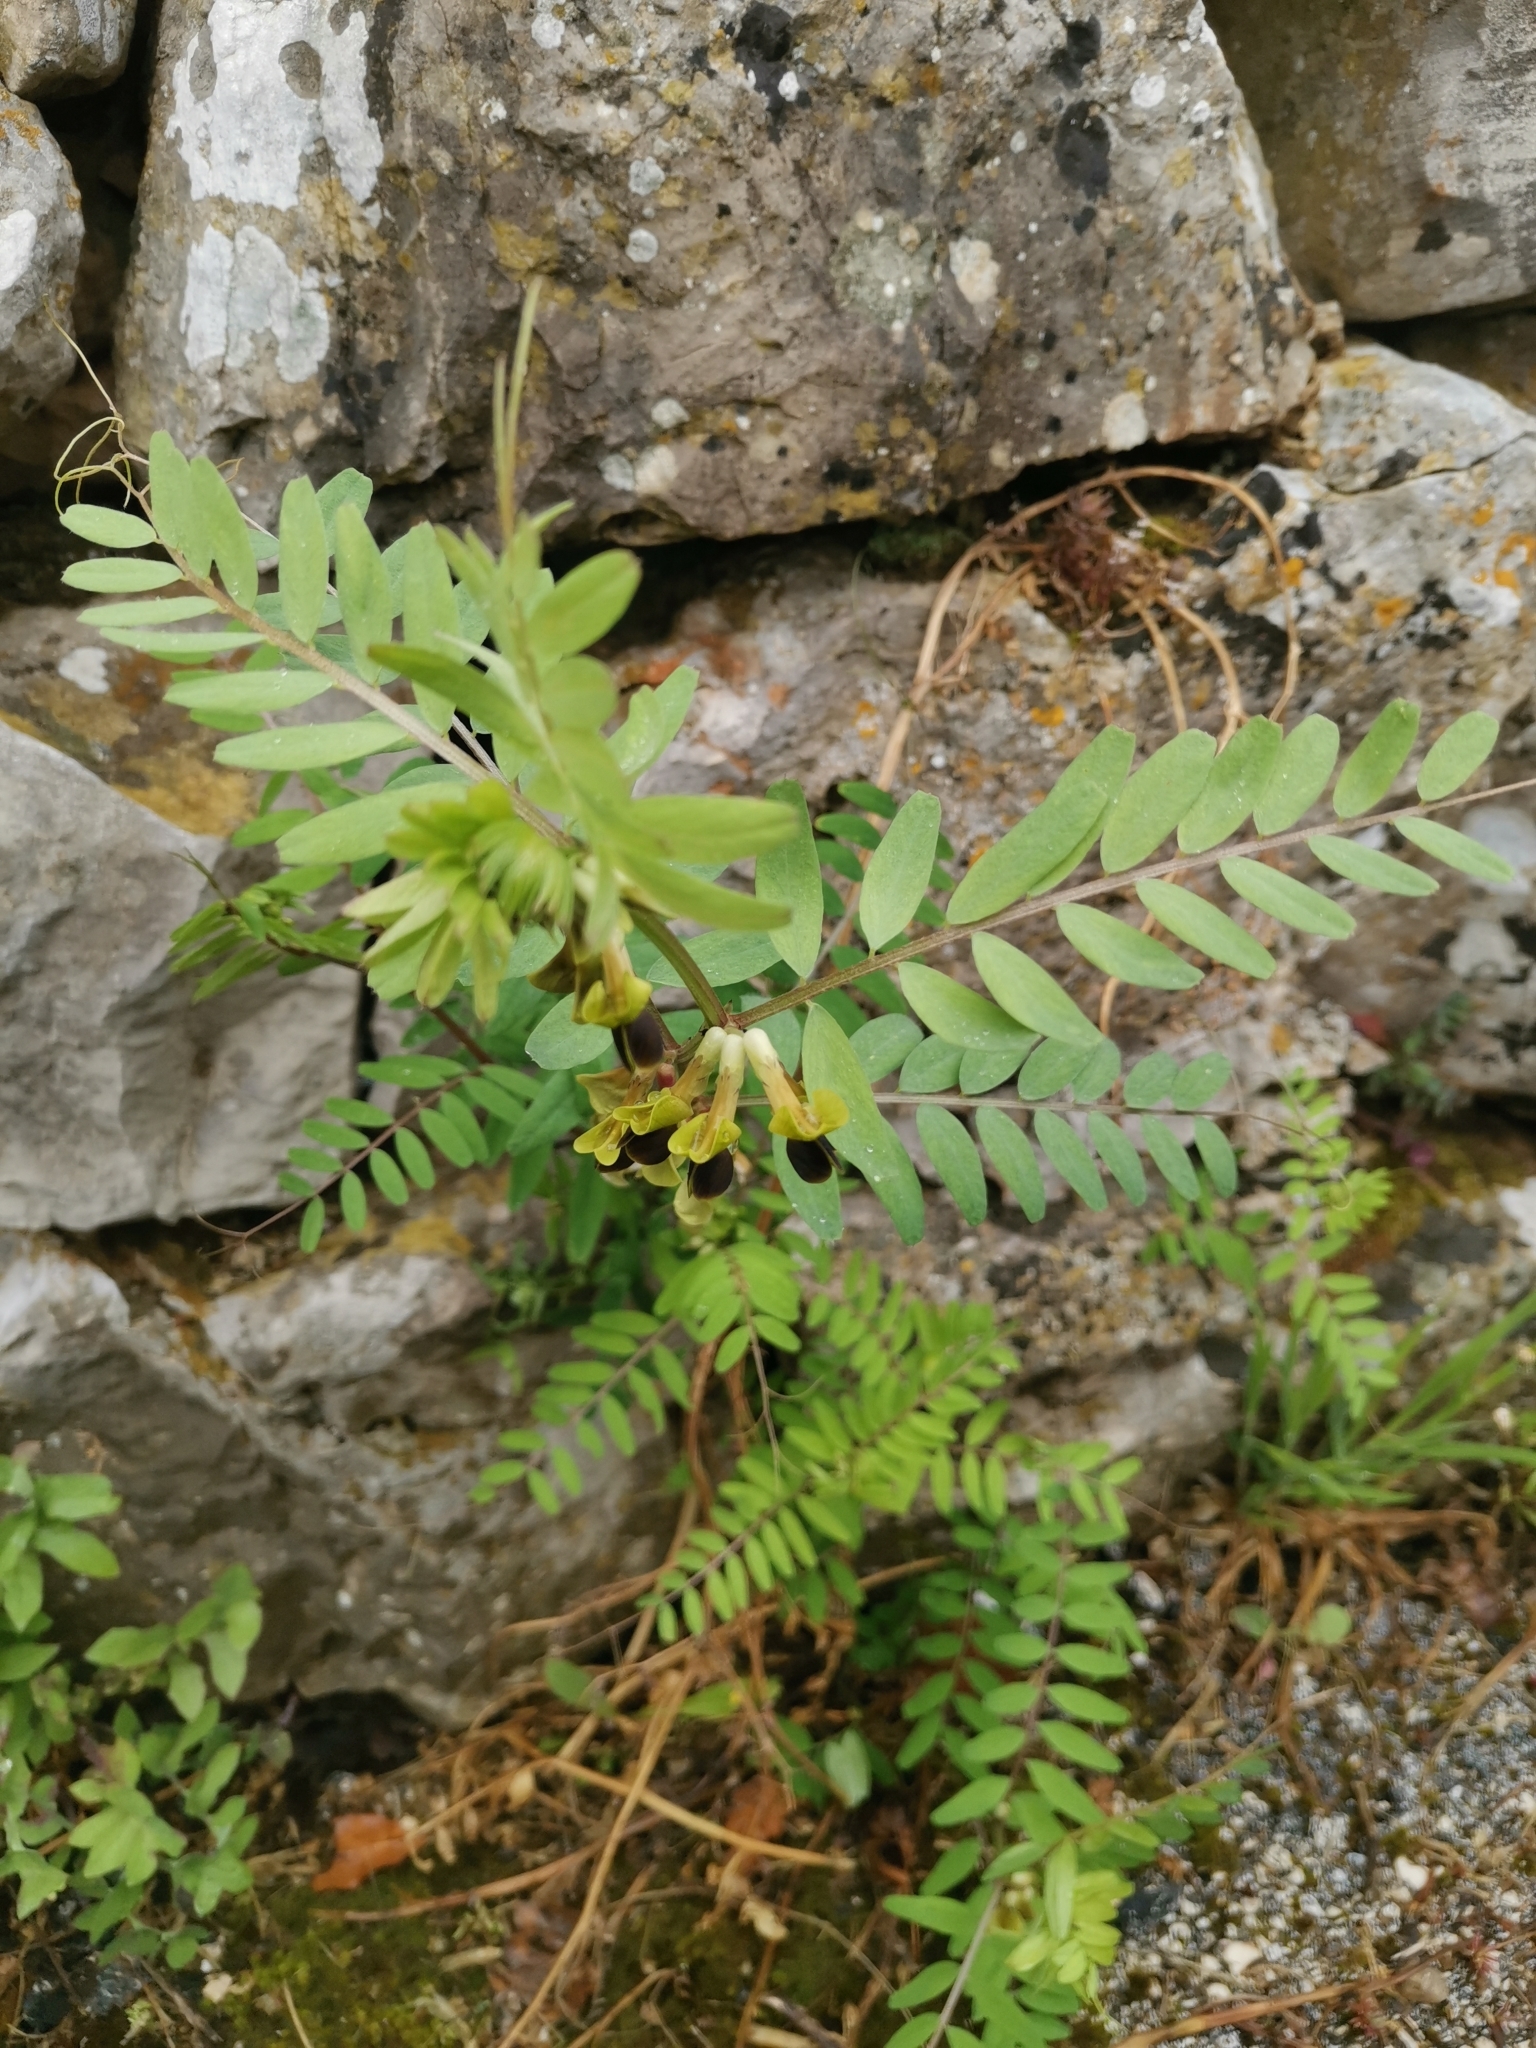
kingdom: Plantae
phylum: Tracheophyta
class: Magnoliopsida
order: Fabales
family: Fabaceae
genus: Vicia
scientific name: Vicia melanops
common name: Black-eyed vetch
